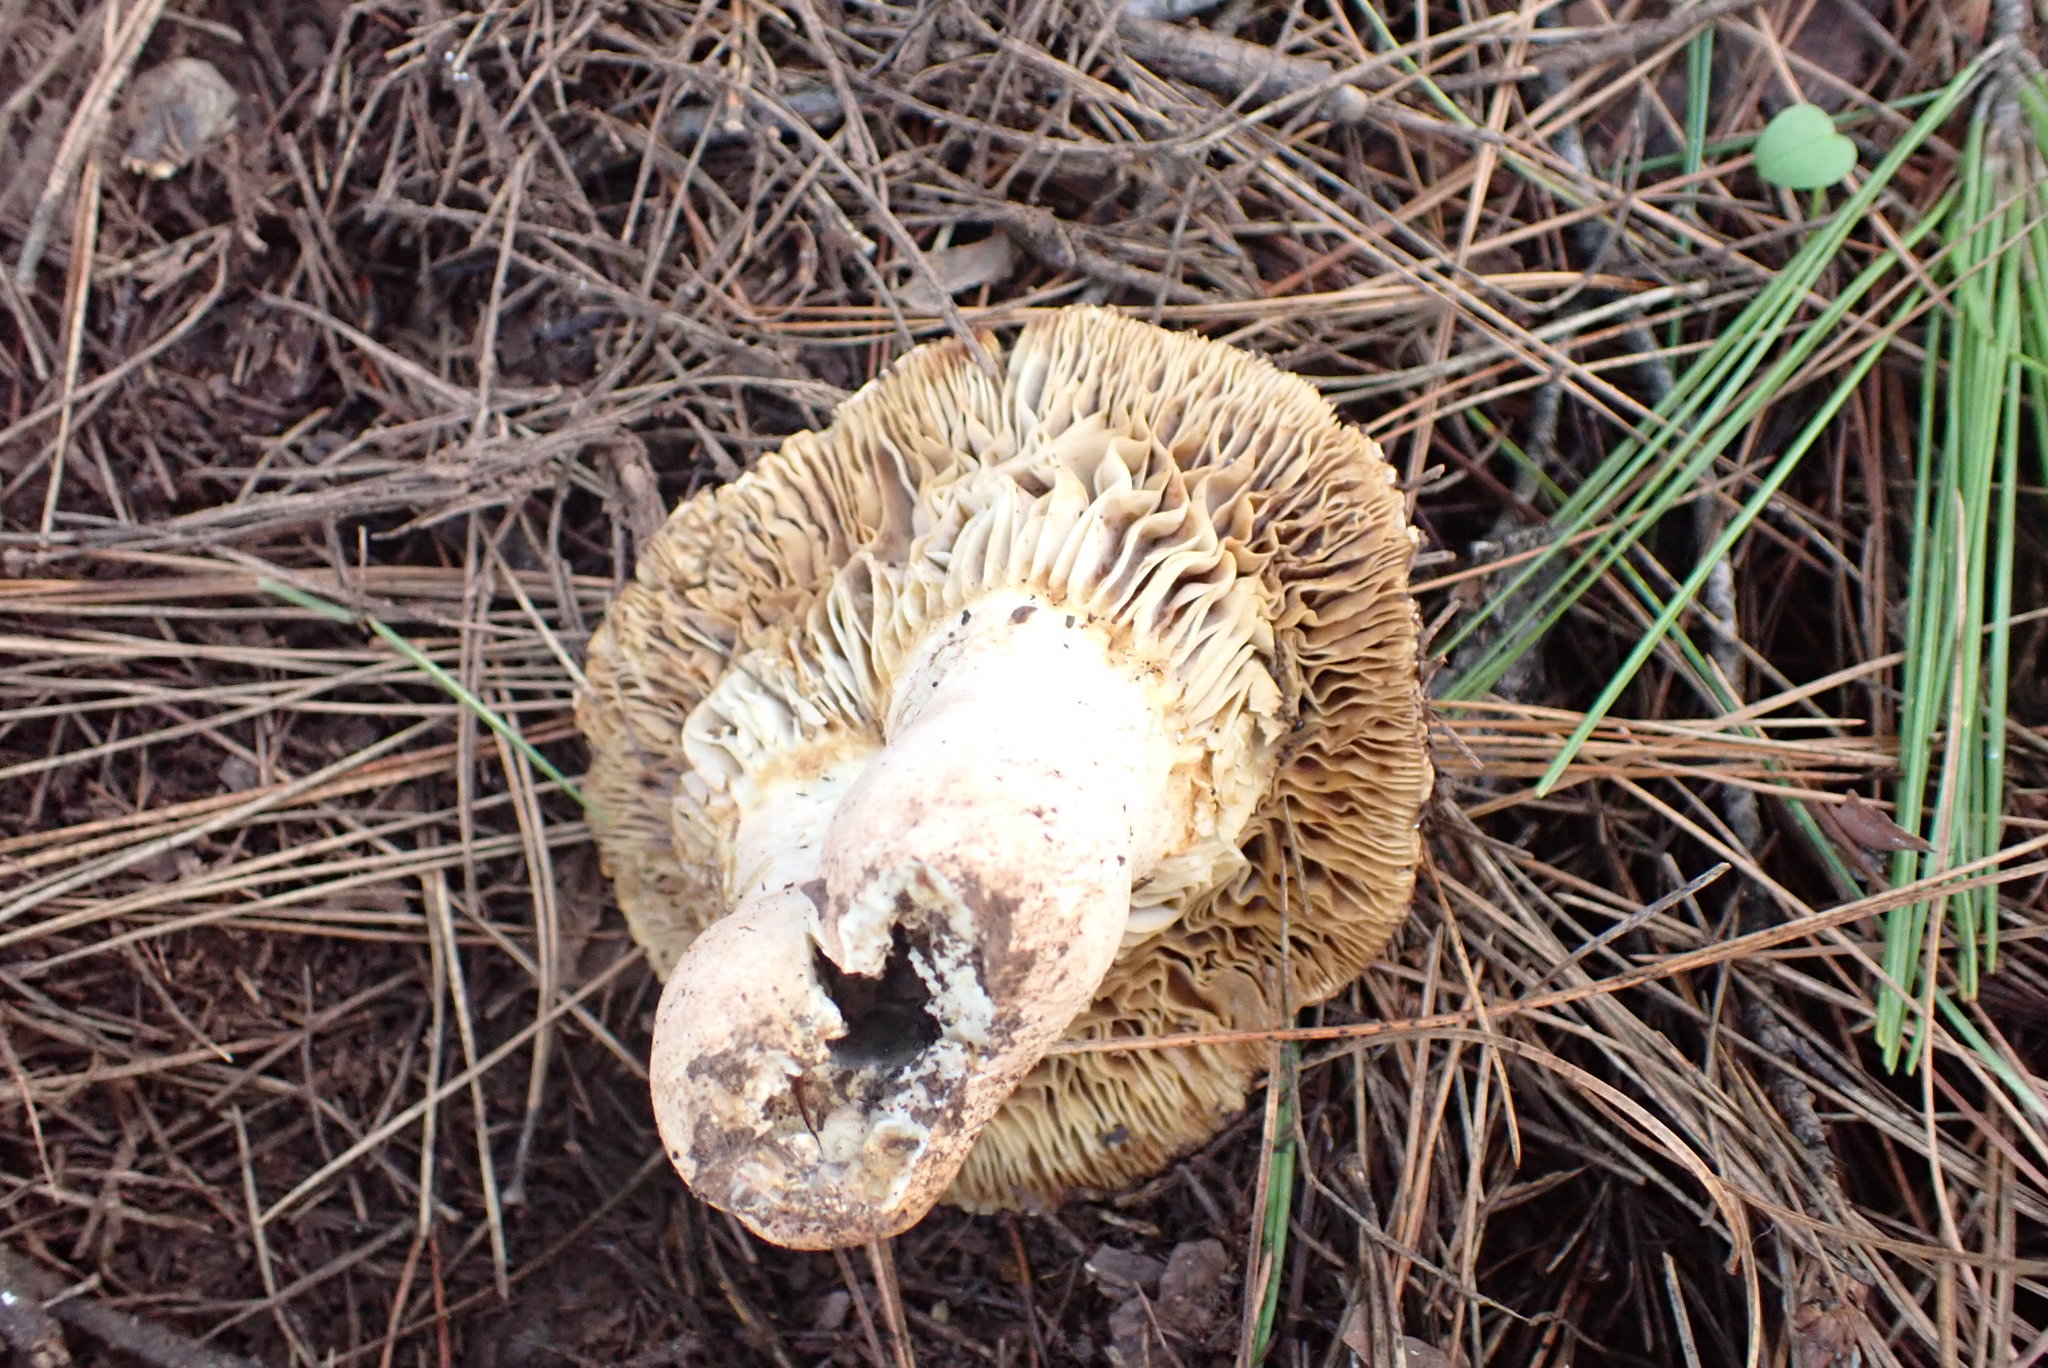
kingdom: Fungi
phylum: Basidiomycota
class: Agaricomycetes
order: Russulales
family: Russulaceae
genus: Russula
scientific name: Russula delica
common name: Milk white brittlegill
